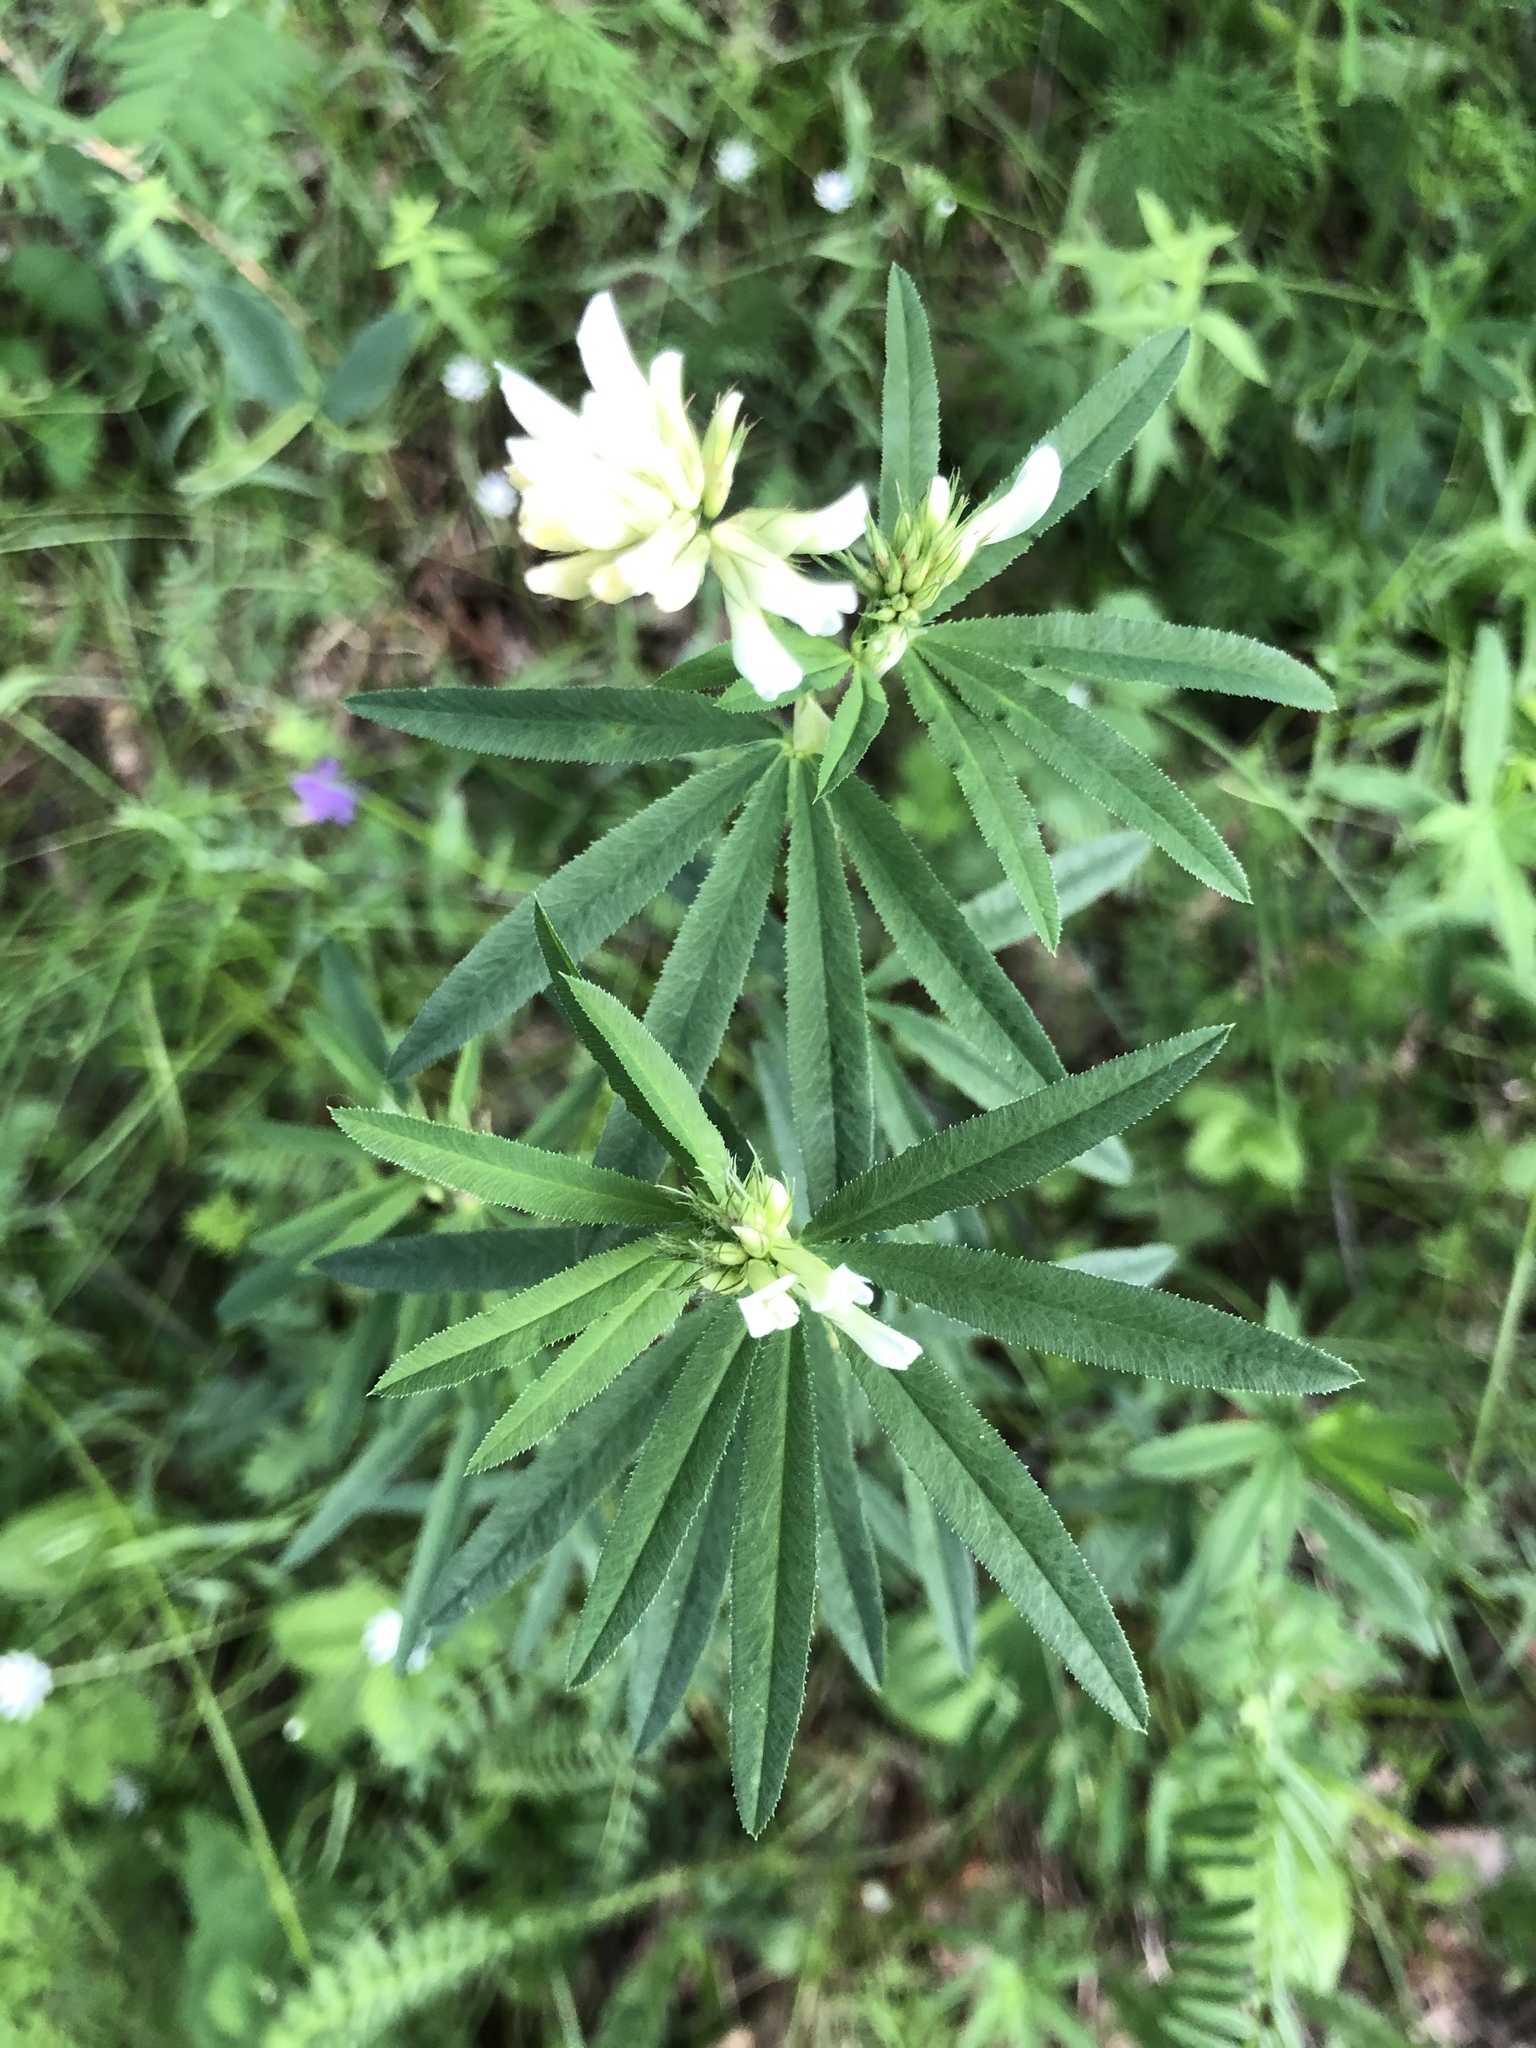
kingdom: Plantae
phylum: Tracheophyta
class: Magnoliopsida
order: Fabales
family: Fabaceae
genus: Trifolium
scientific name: Trifolium lupinaster
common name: Lupine clover
